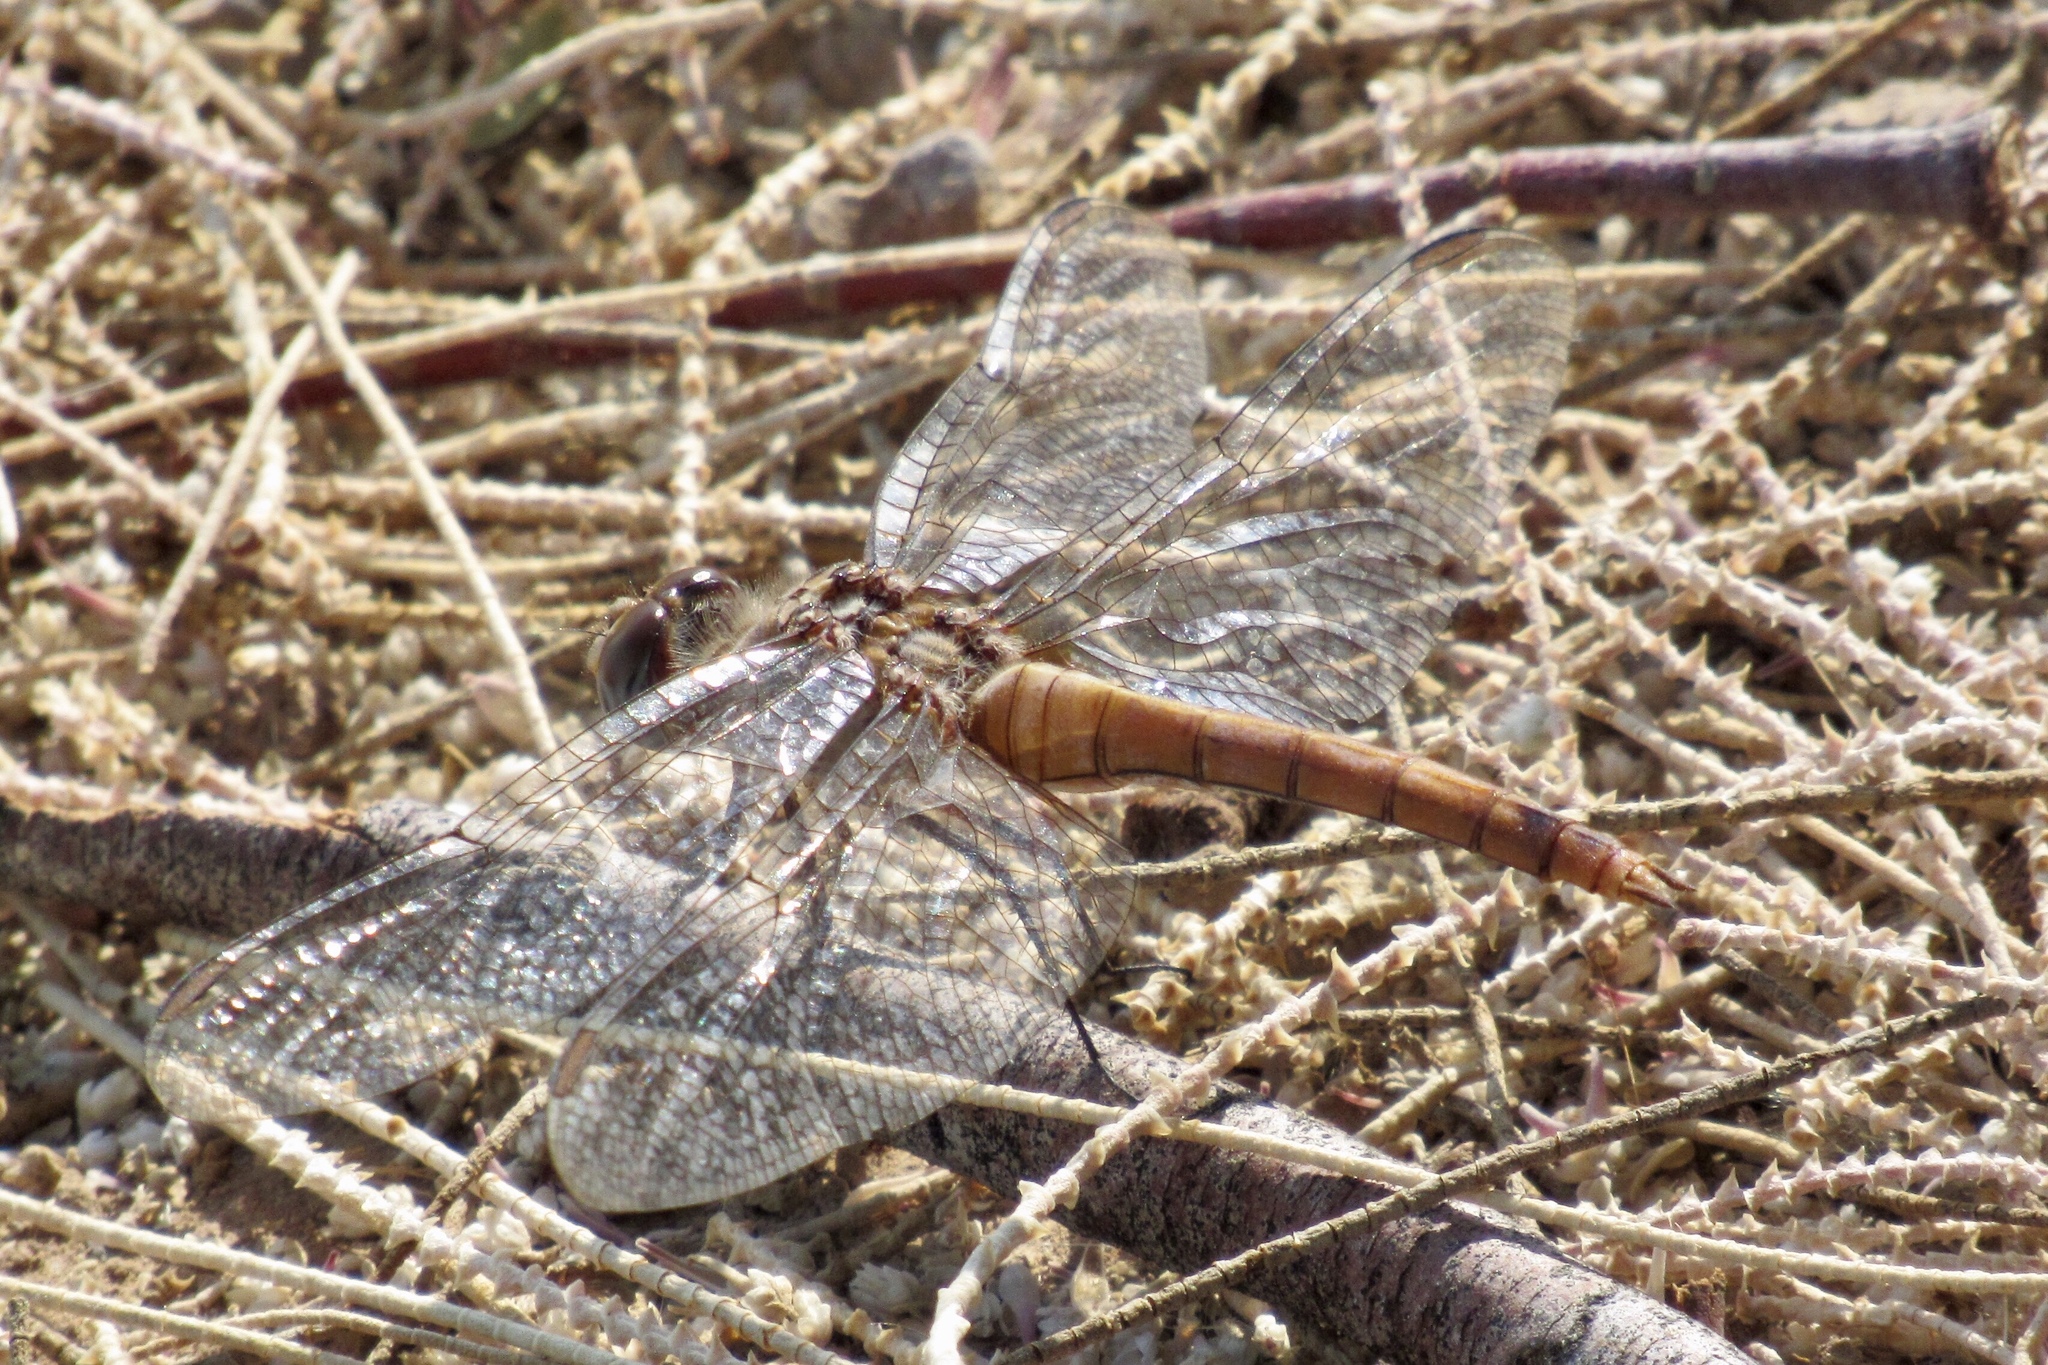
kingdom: Animalia
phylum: Arthropoda
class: Insecta
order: Odonata
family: Libellulidae
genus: Orthemis
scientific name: Orthemis ferruginea
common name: Roseate skimmer
